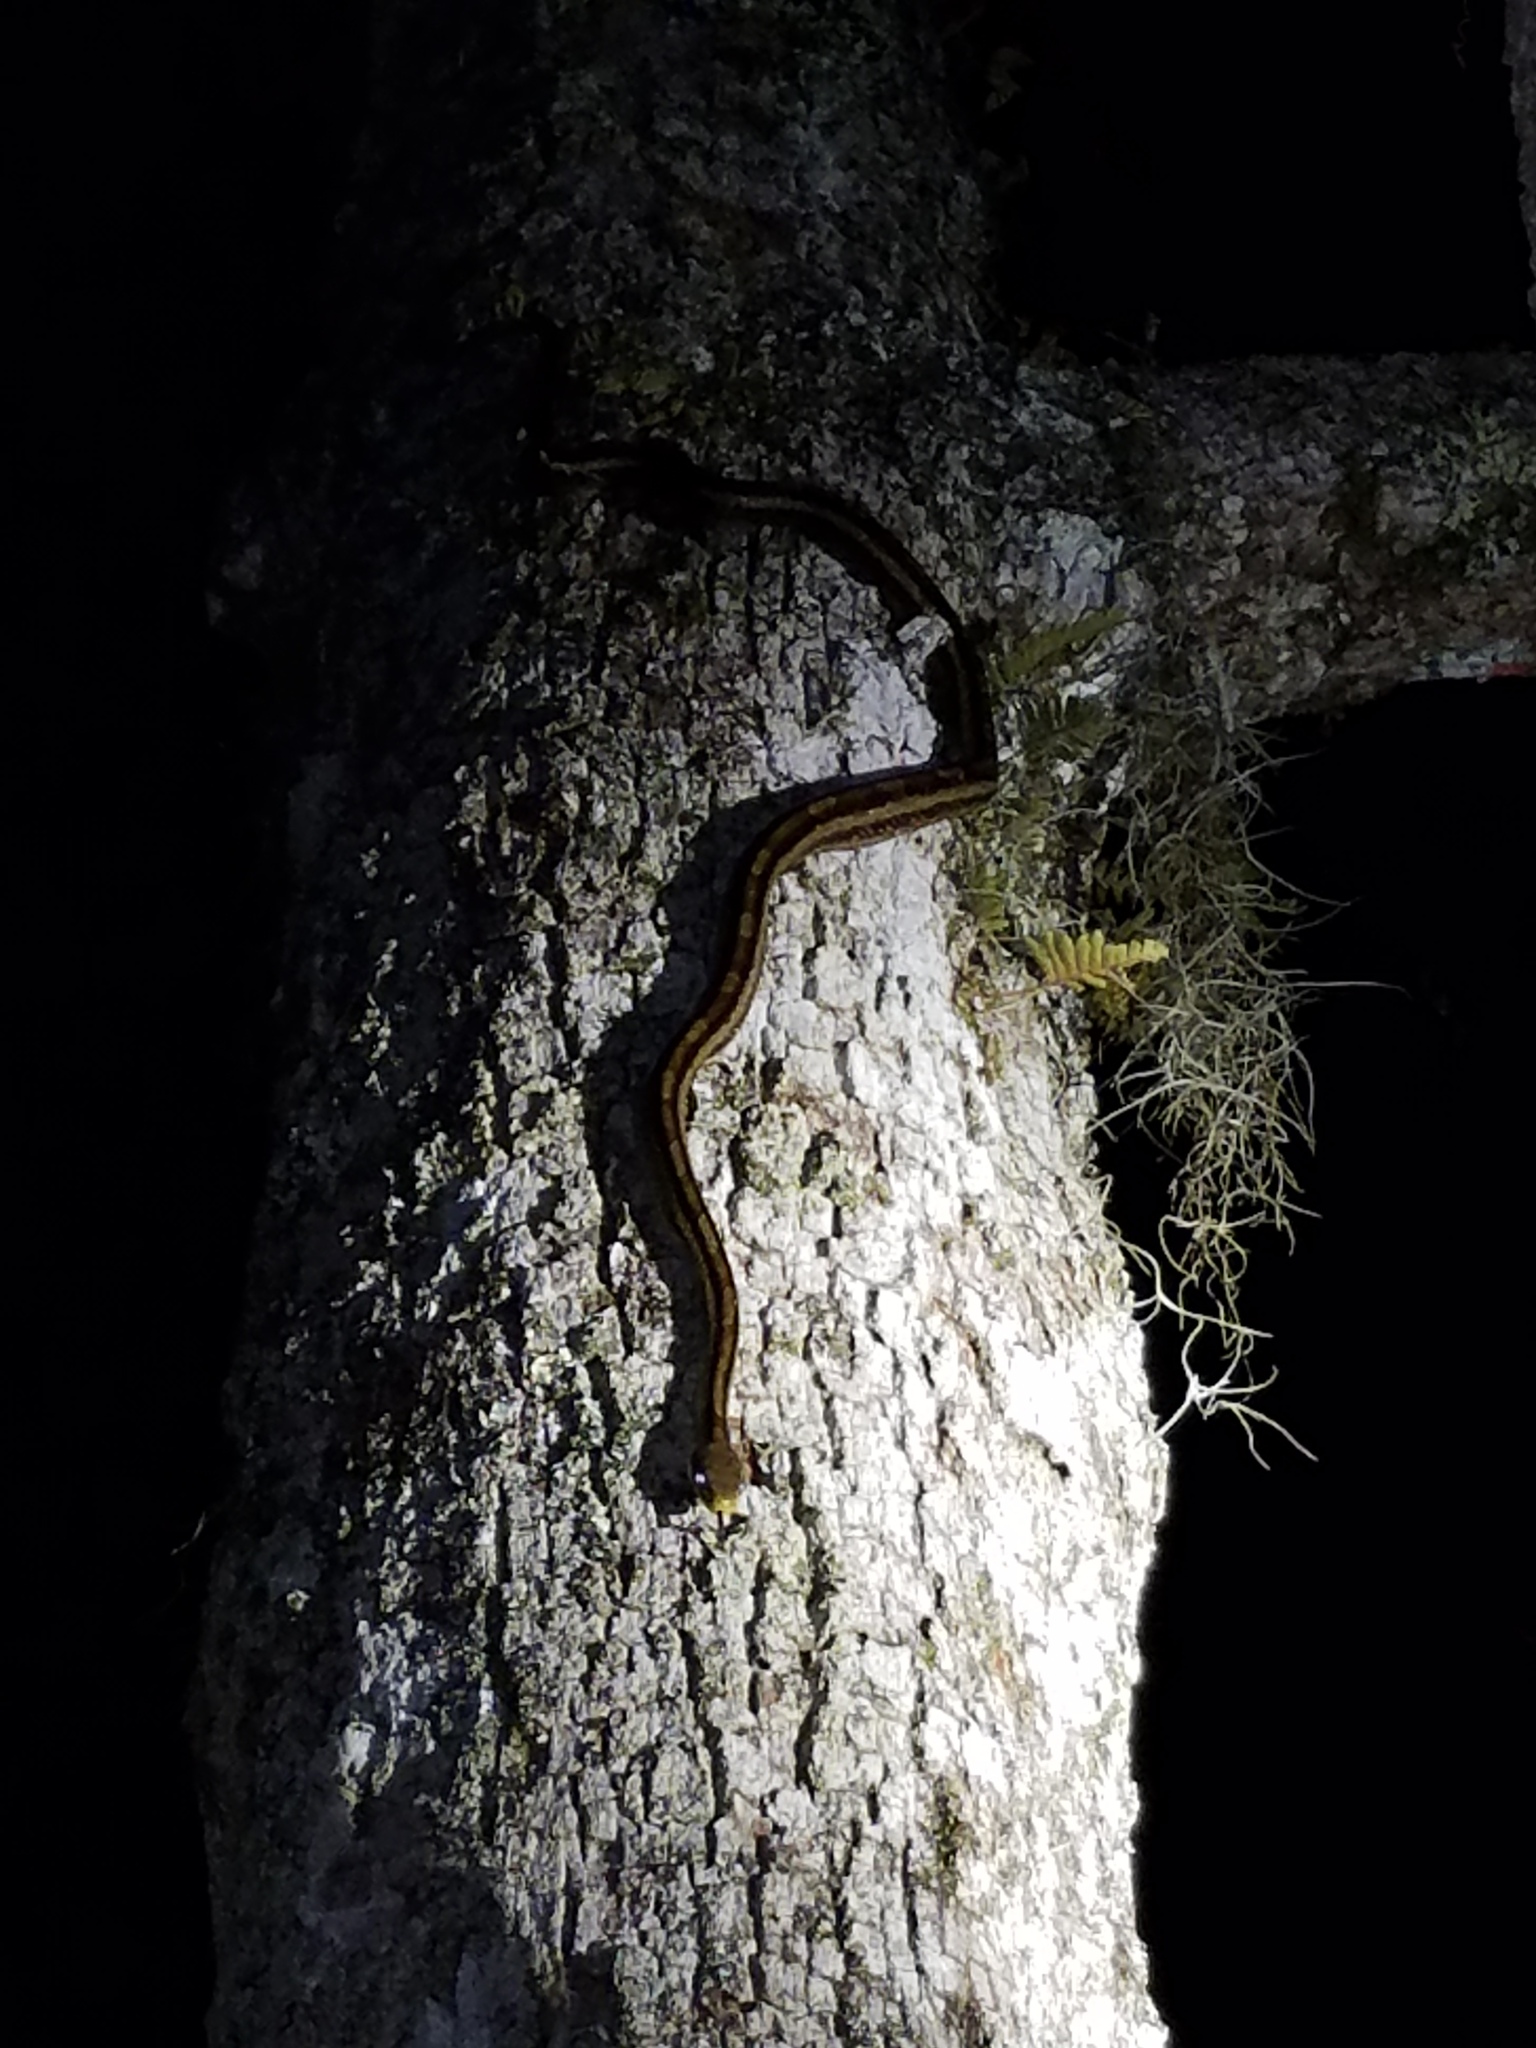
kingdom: Animalia
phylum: Chordata
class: Squamata
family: Colubridae
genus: Pantherophis
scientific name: Pantherophis alleghaniensis
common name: Eastern rat snake
